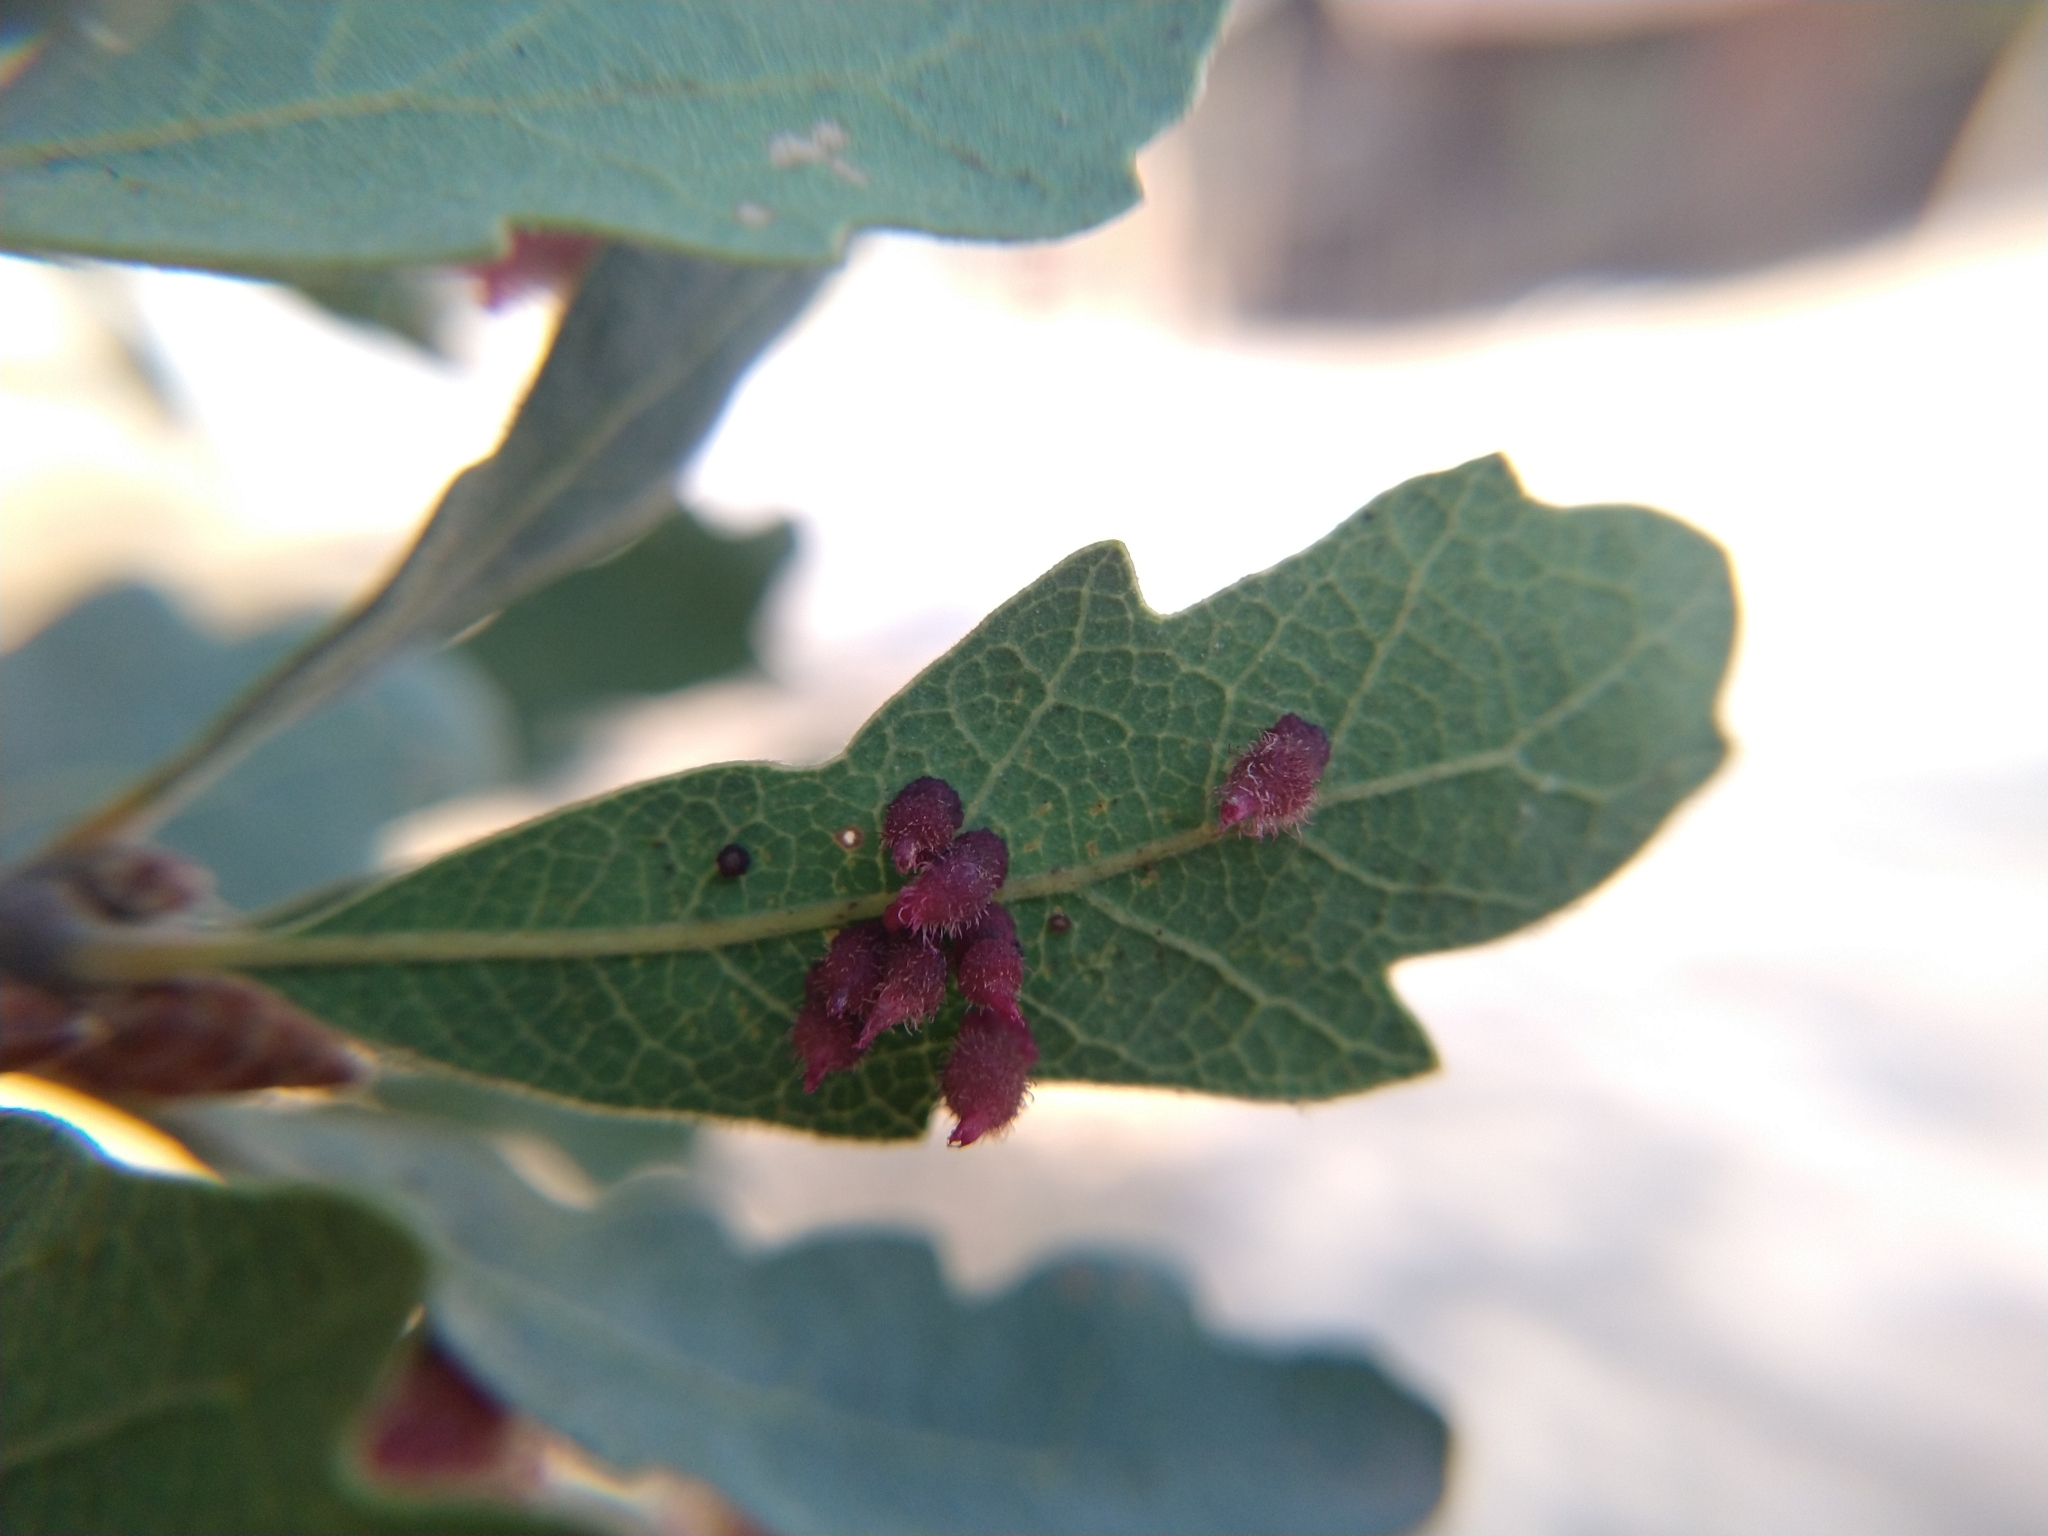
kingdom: Animalia
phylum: Arthropoda
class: Insecta
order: Hymenoptera
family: Cynipidae
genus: Andricus
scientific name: Andricus
